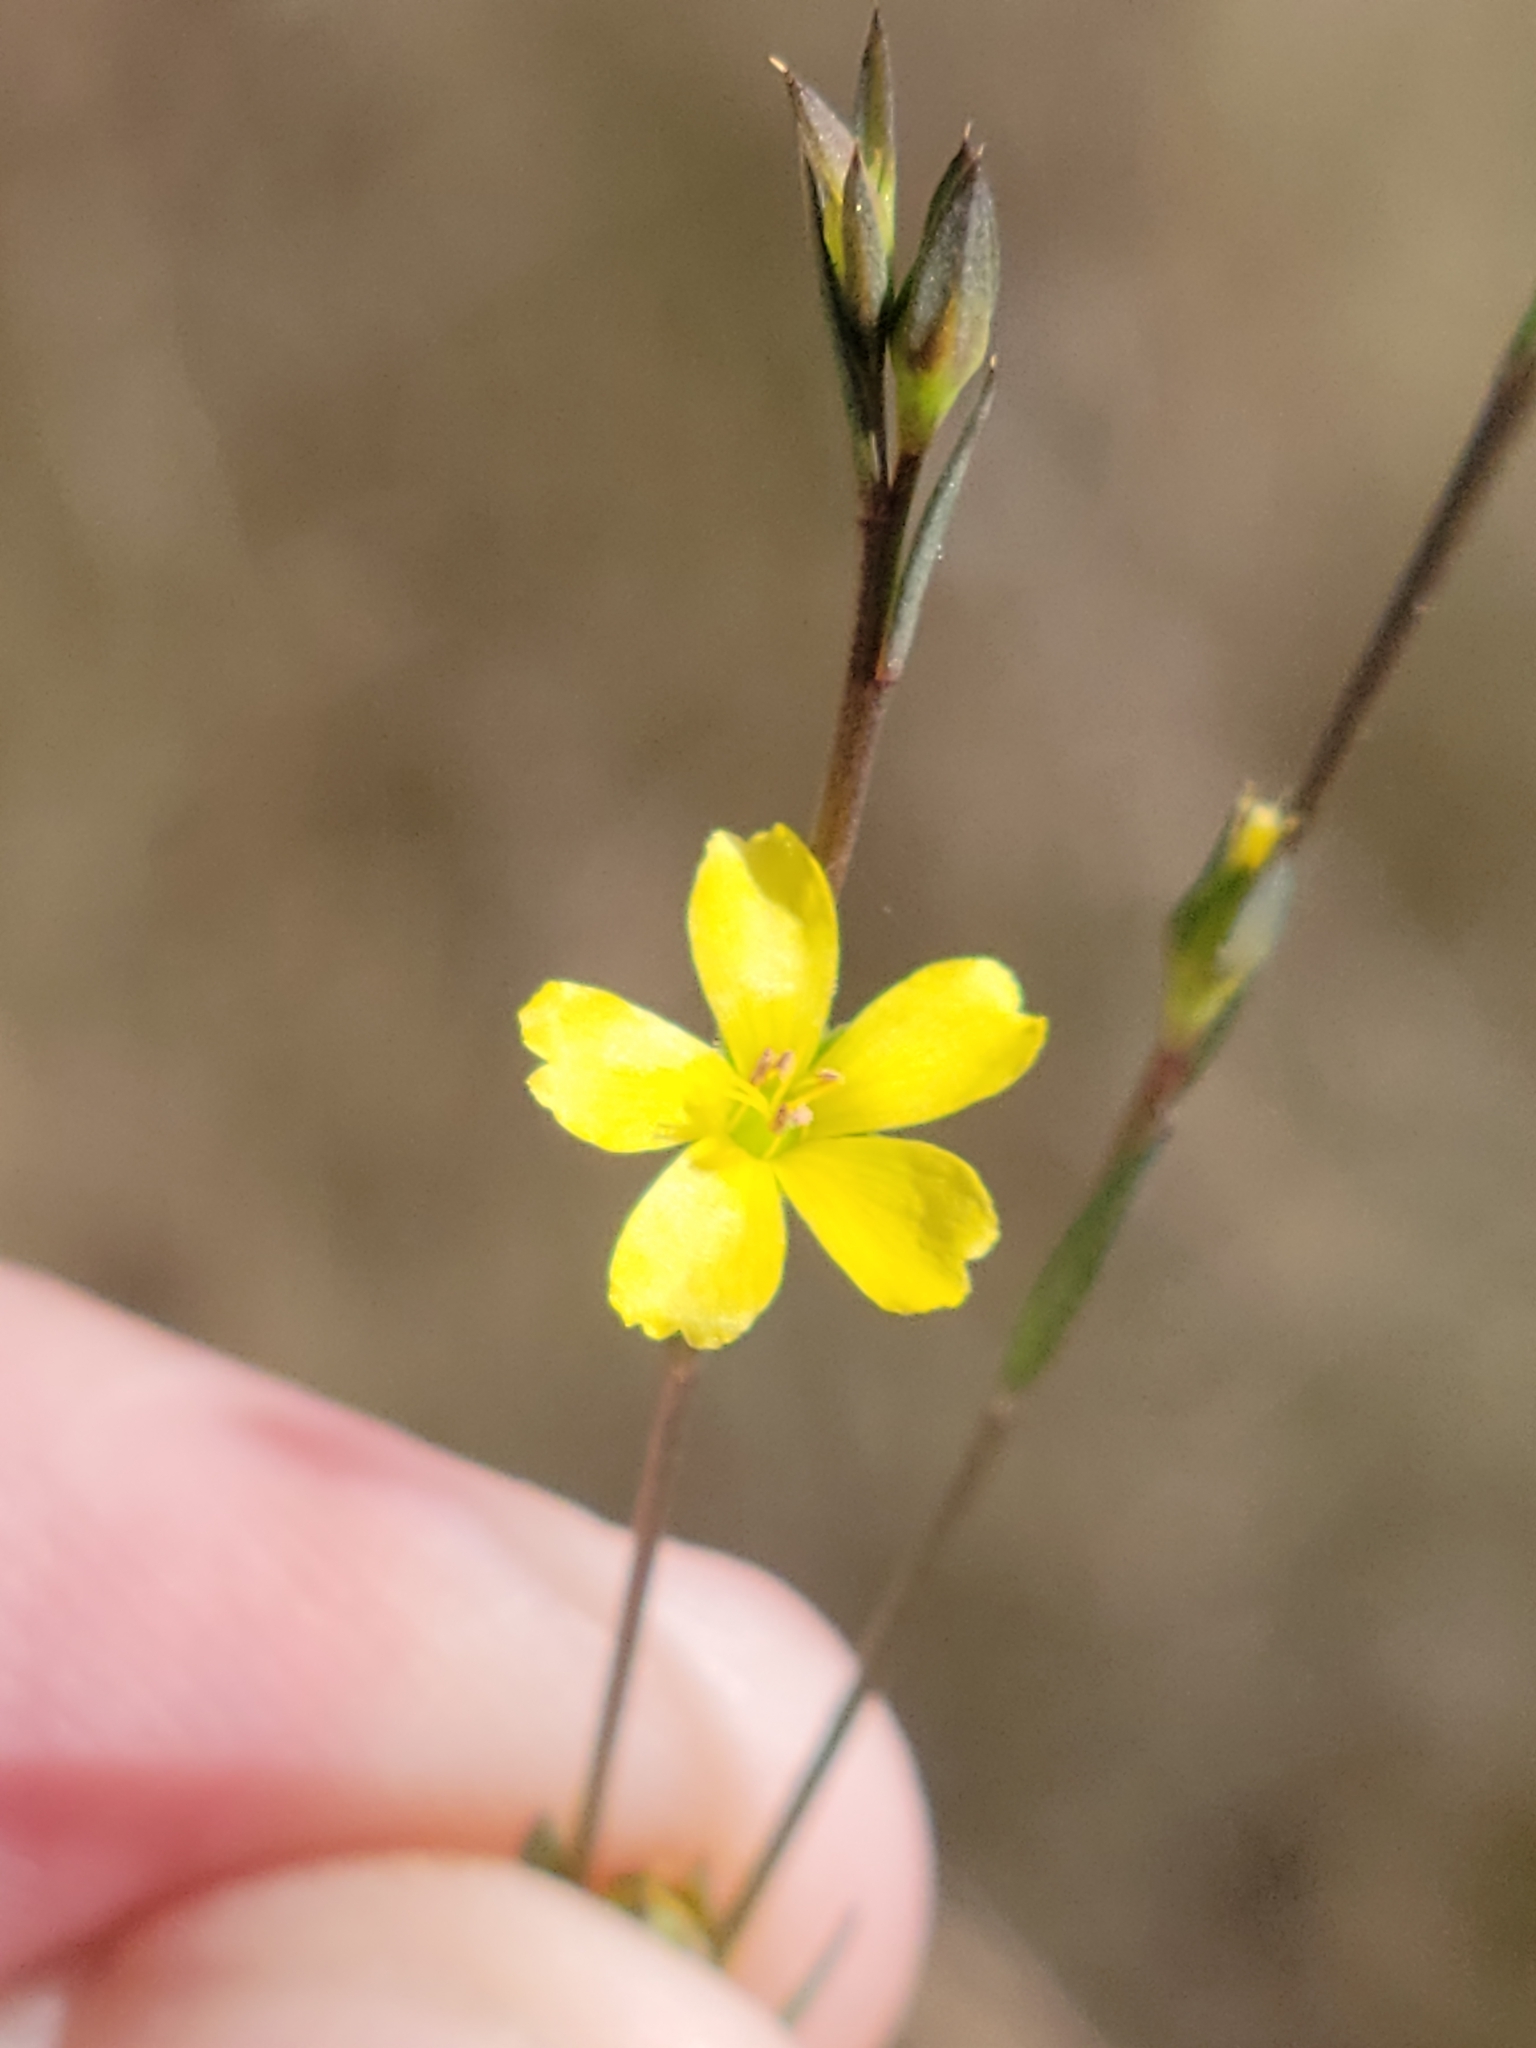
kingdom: Plantae
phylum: Tracheophyta
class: Magnoliopsida
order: Malpighiales
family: Linaceae
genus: Linum
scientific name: Linum medium
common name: Stiff yellow flax
